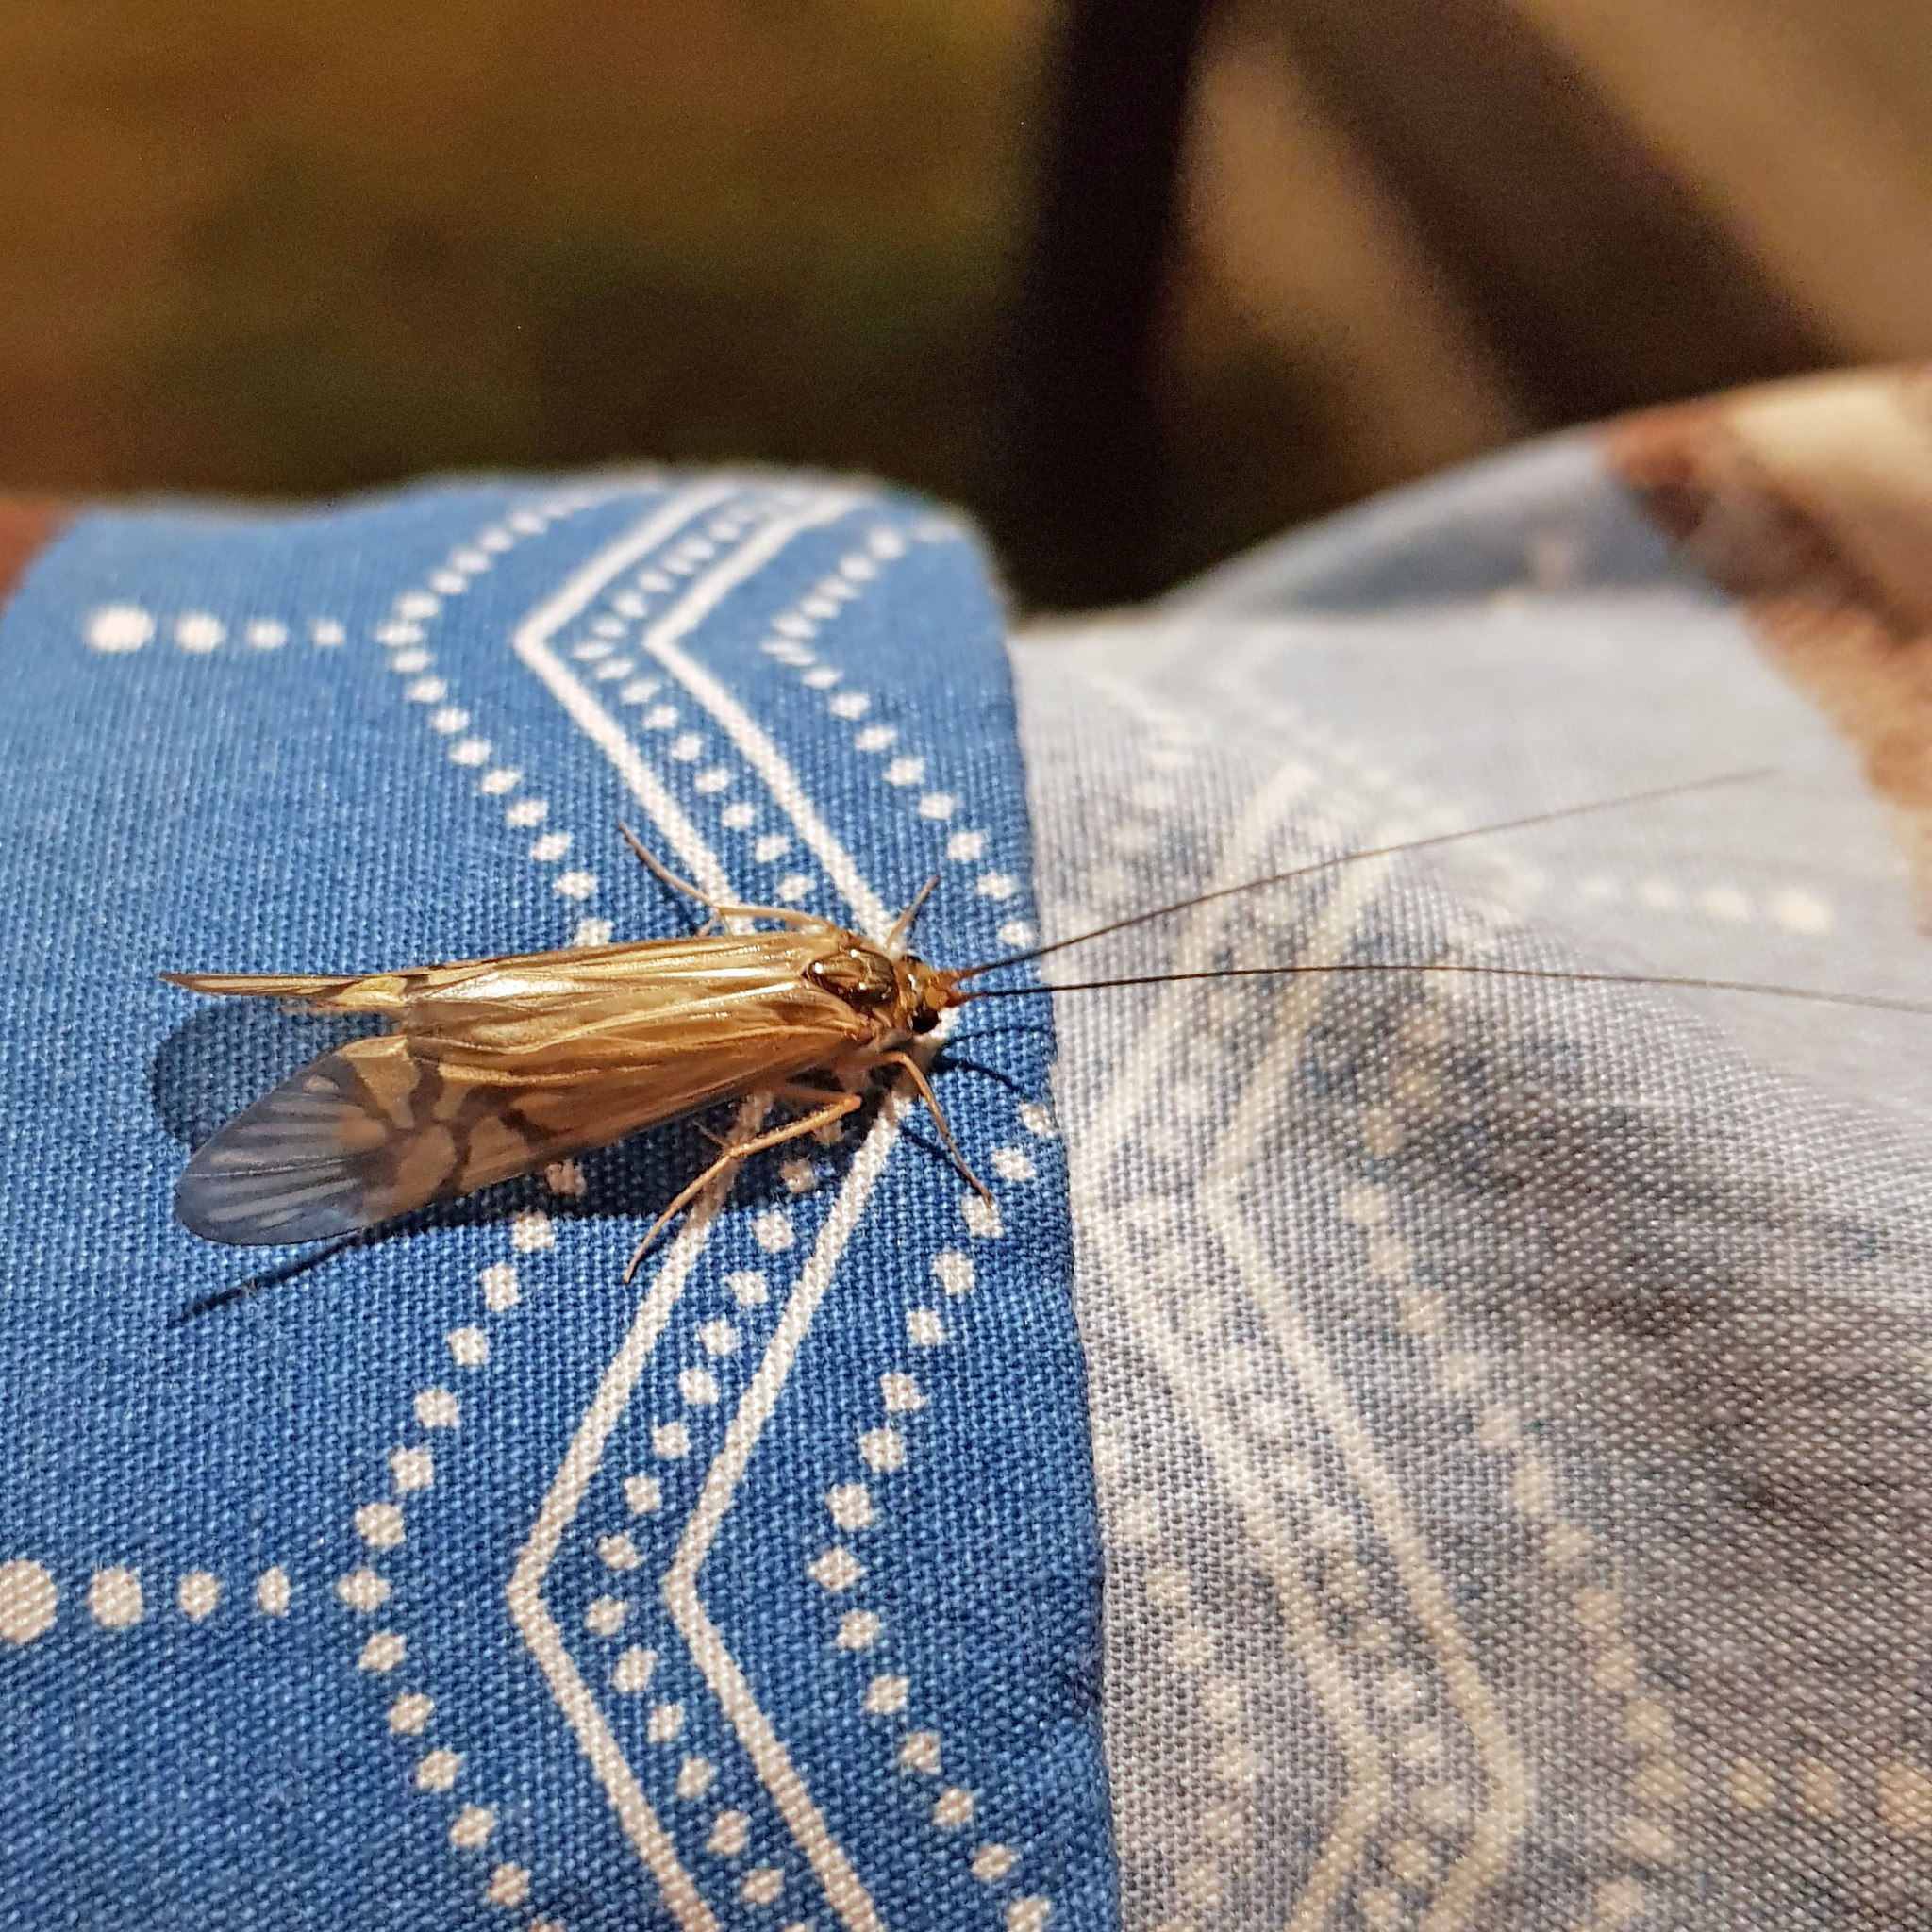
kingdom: Animalia
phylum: Arthropoda
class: Insecta
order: Trichoptera
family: Hydropsychidae
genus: Macrostemum
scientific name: Macrostemum radiatum
